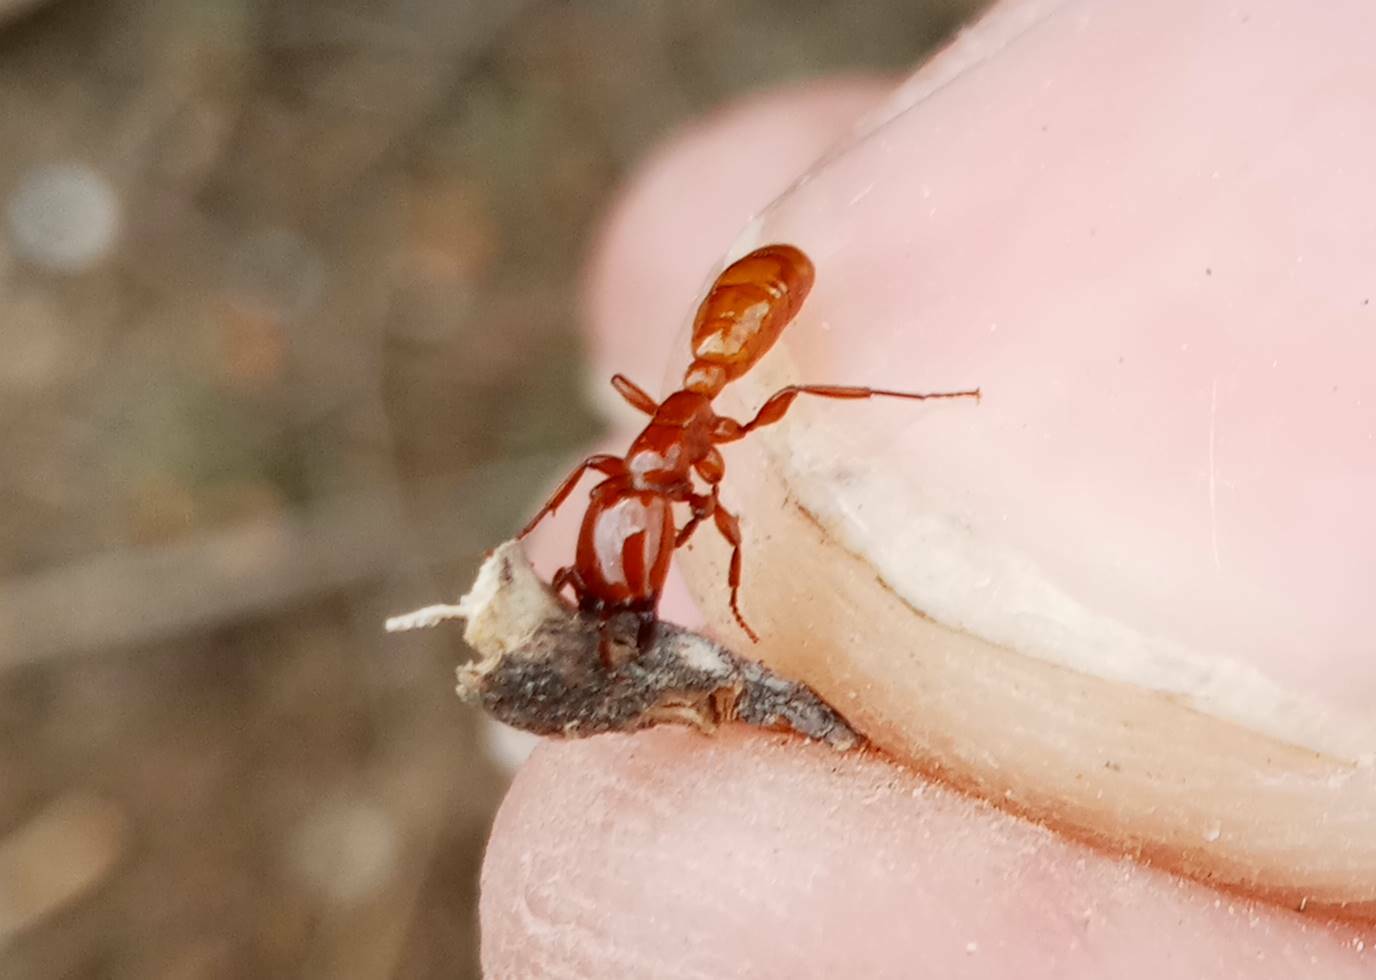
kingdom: Animalia
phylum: Arthropoda
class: Insecta
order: Hymenoptera
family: Formicidae
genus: Dorylus
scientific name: Dorylus fulvus
